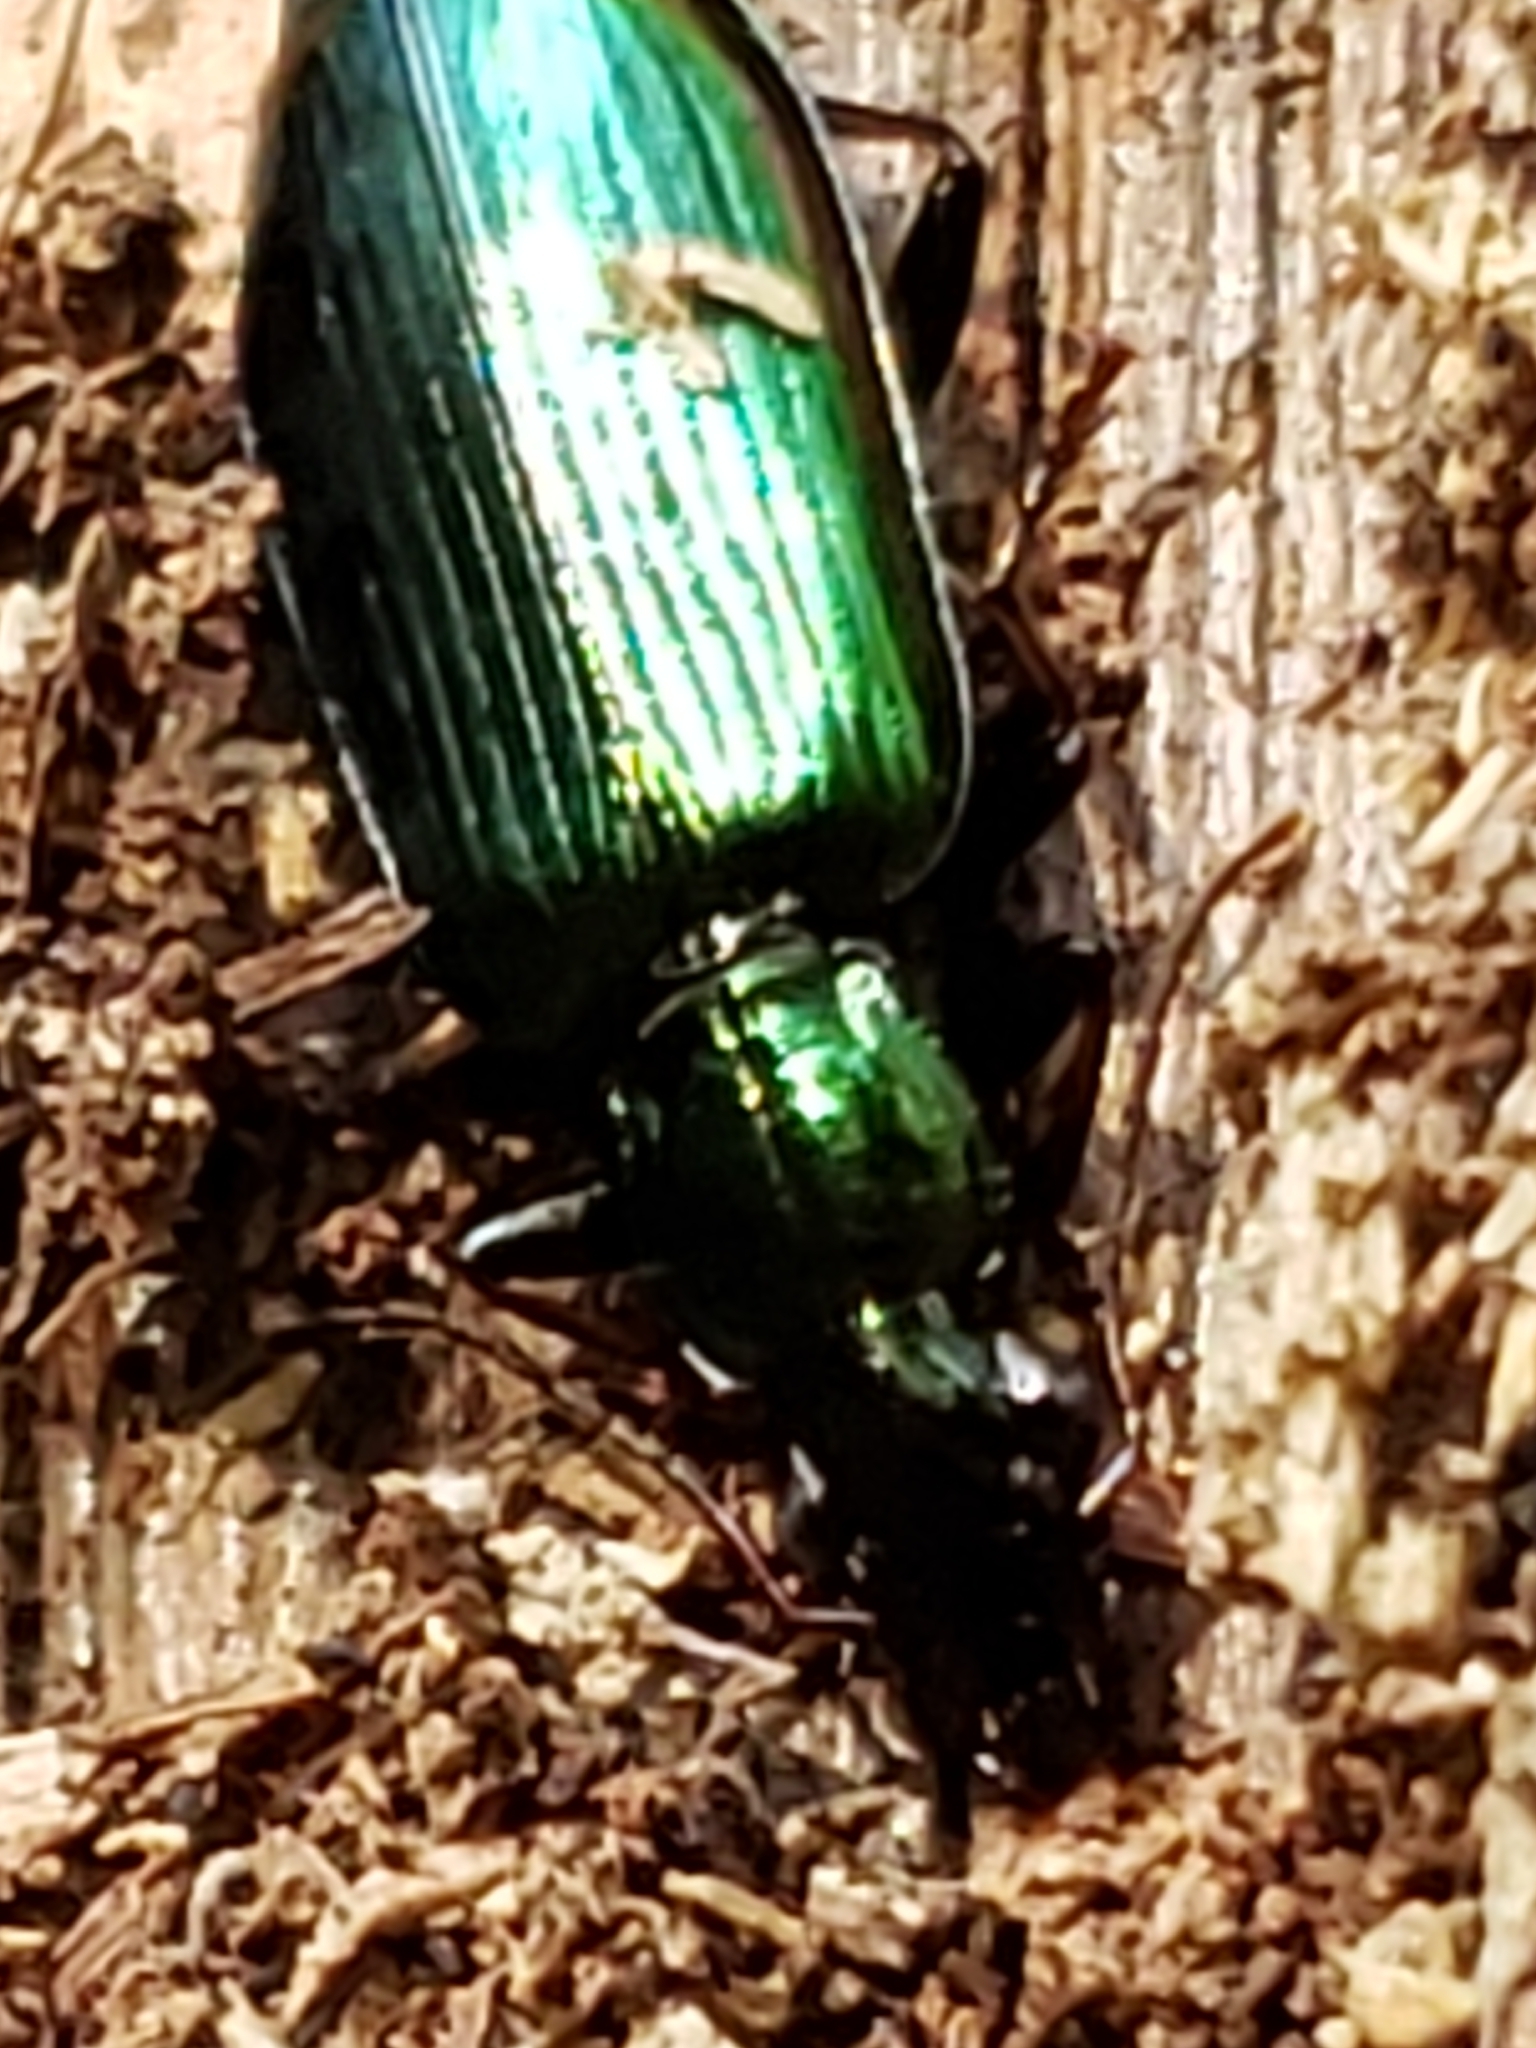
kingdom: Animalia
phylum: Arthropoda
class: Insecta
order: Coleoptera
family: Carabidae
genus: Calleida
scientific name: Calleida viridipennis
